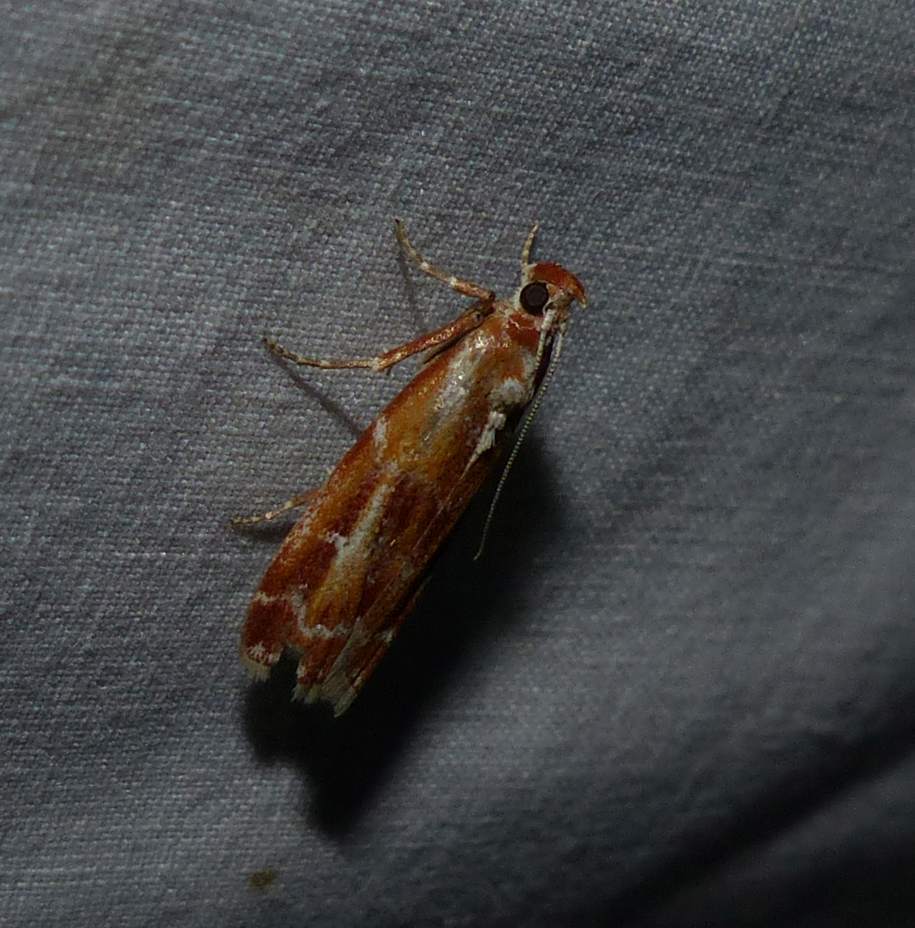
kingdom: Animalia
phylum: Arthropoda
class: Insecta
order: Lepidoptera
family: Pyralidae
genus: Dioryctria
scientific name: Dioryctria disclusa
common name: Rusty pine cone moth
